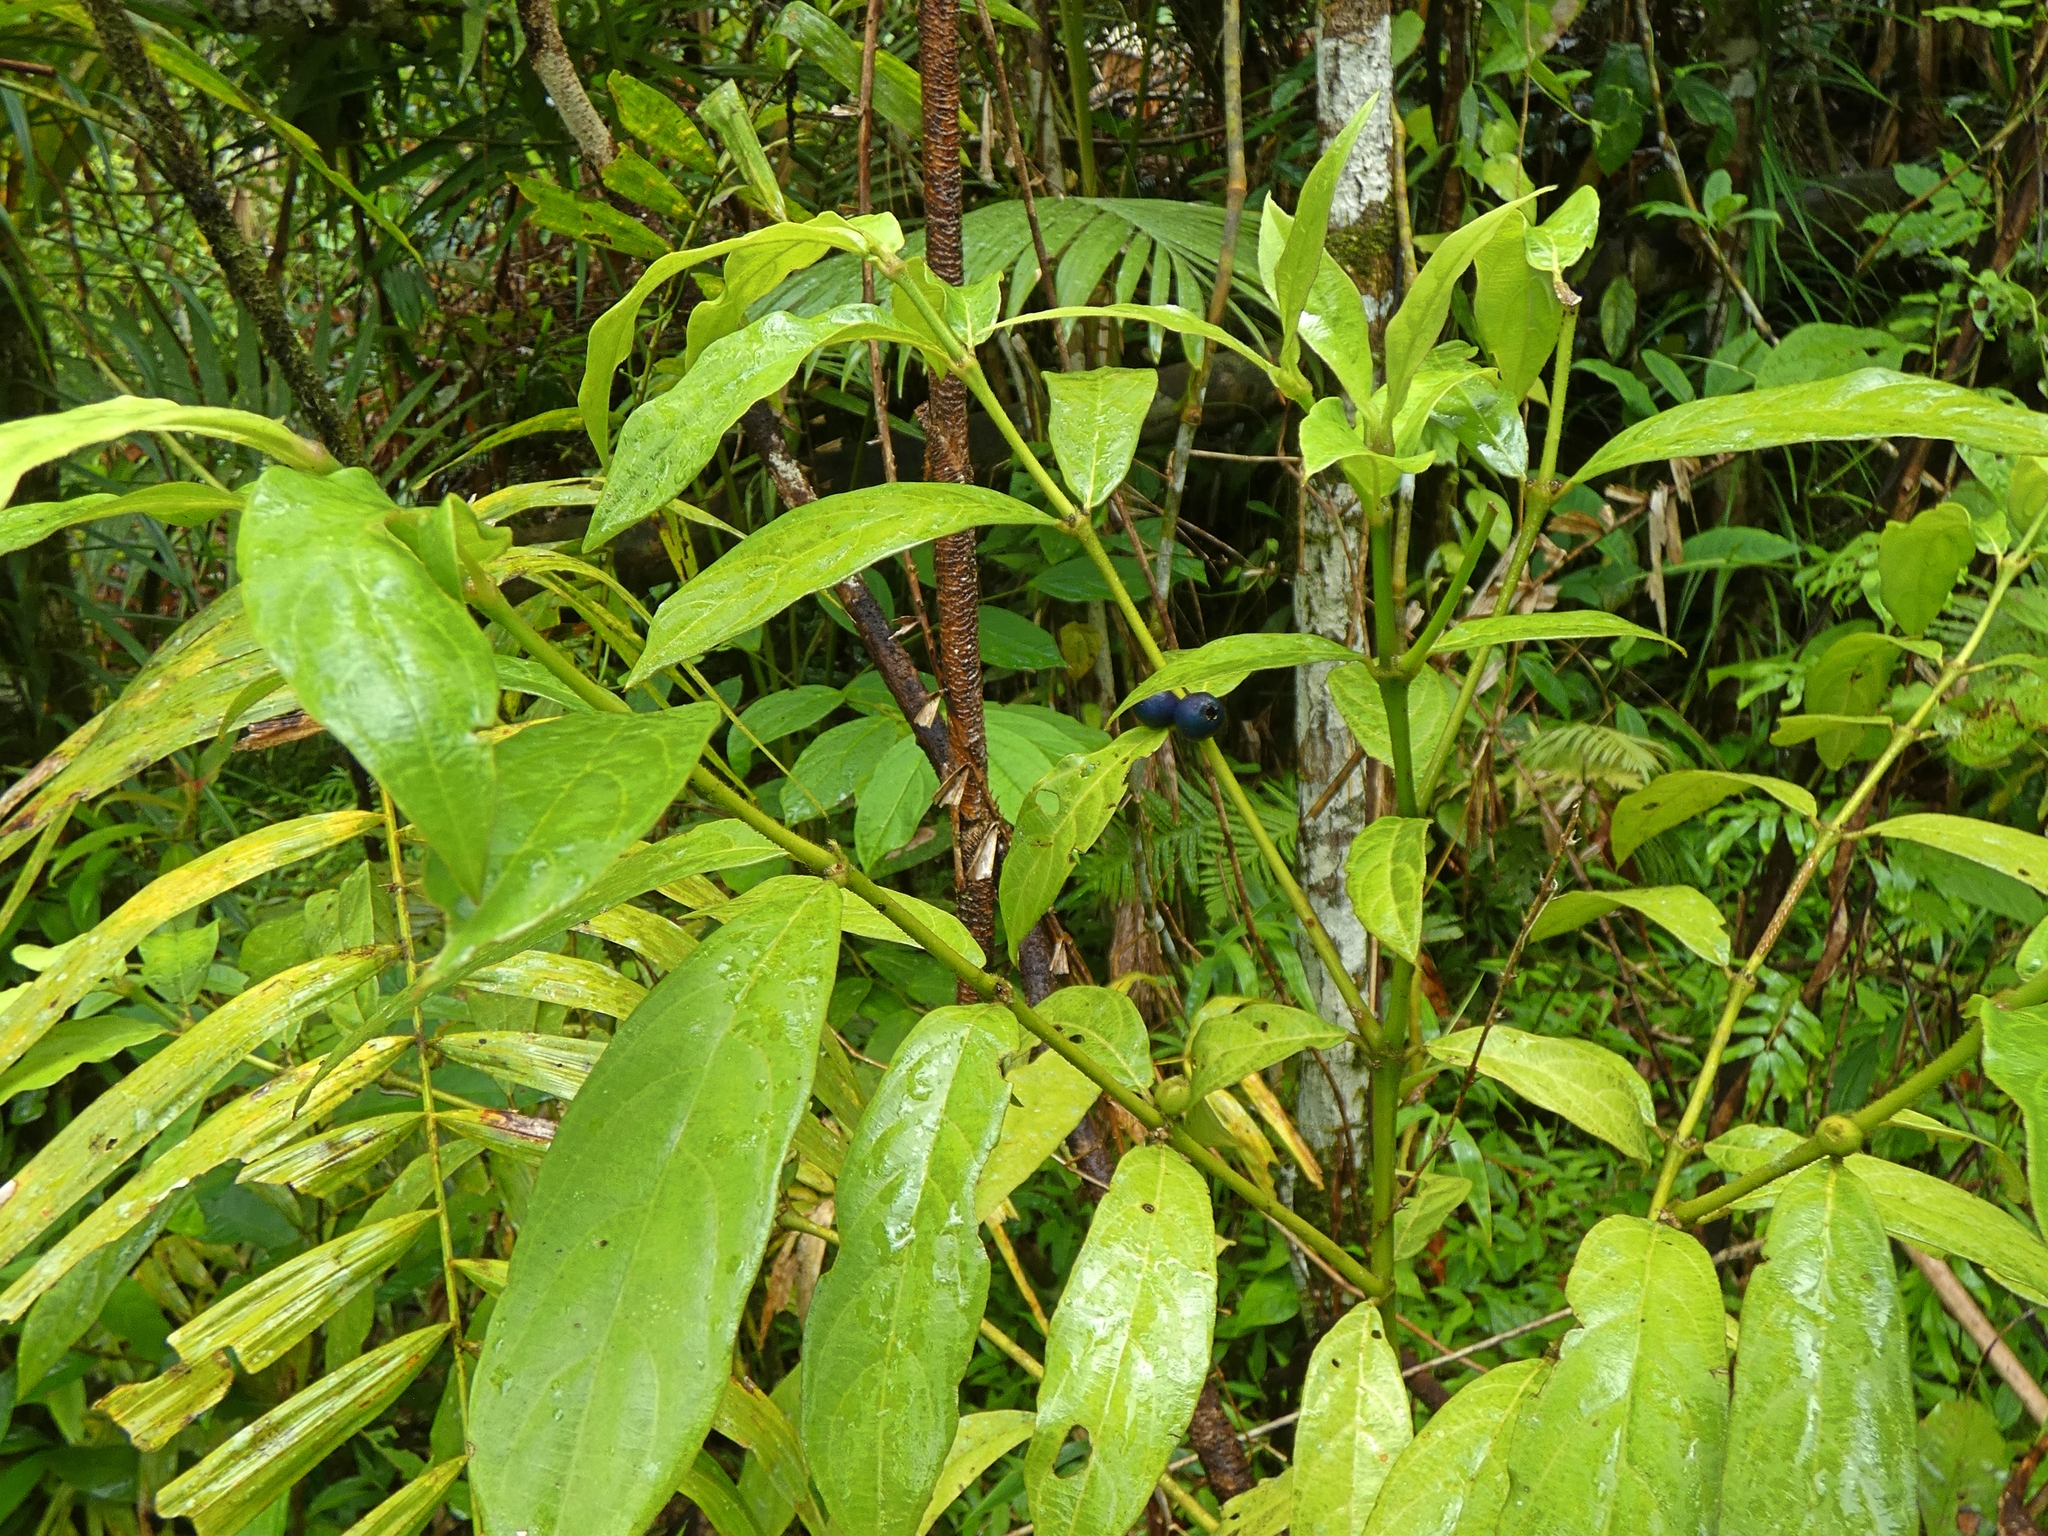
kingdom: Plantae
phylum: Tracheophyta
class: Magnoliopsida
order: Gentianales
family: Rubiaceae
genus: Lasianthus
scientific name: Lasianthus chlorocarpus
